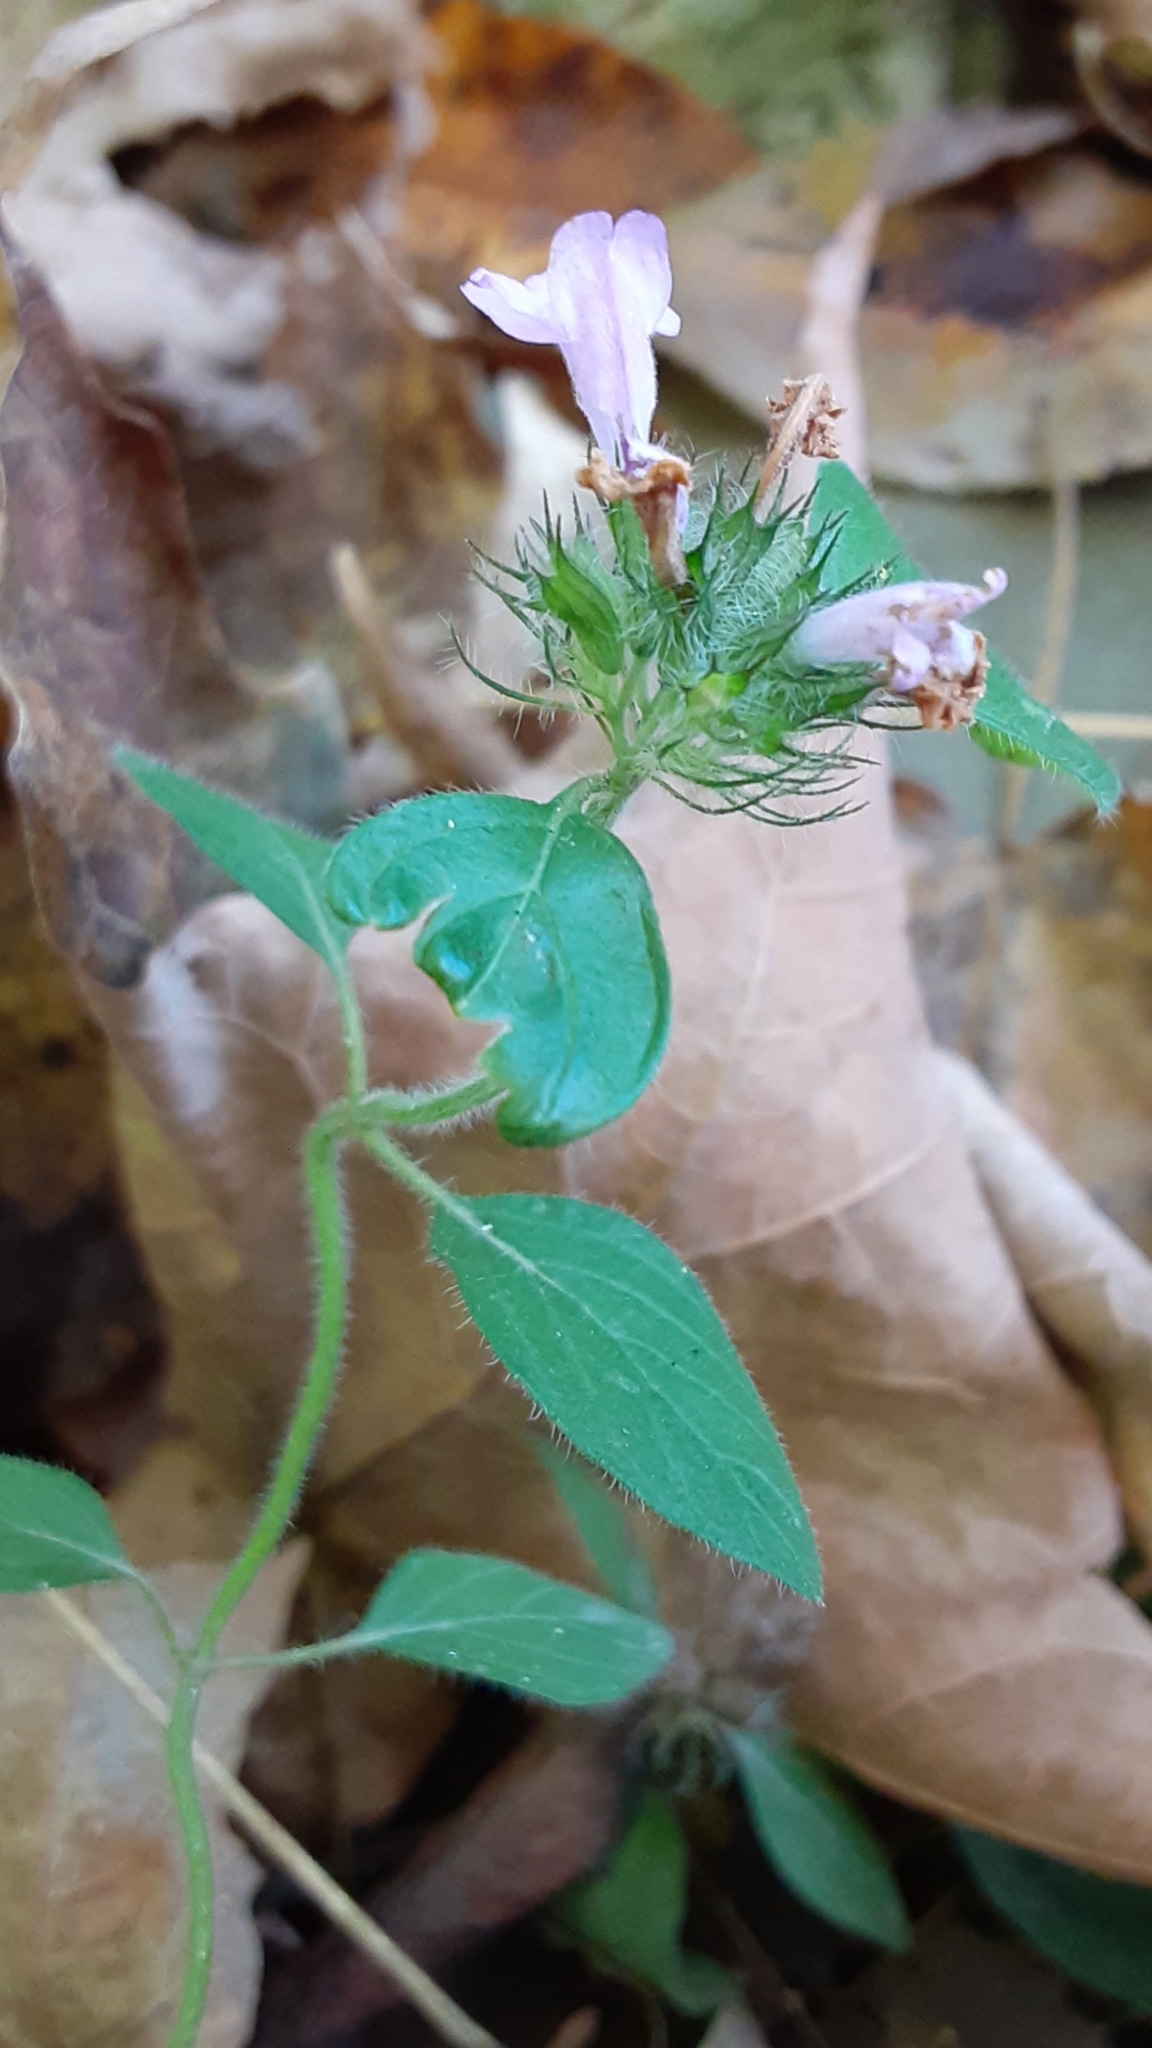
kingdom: Plantae
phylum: Tracheophyta
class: Magnoliopsida
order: Lamiales
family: Lamiaceae
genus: Clinopodium
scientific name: Clinopodium vulgare
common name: Wild basil
